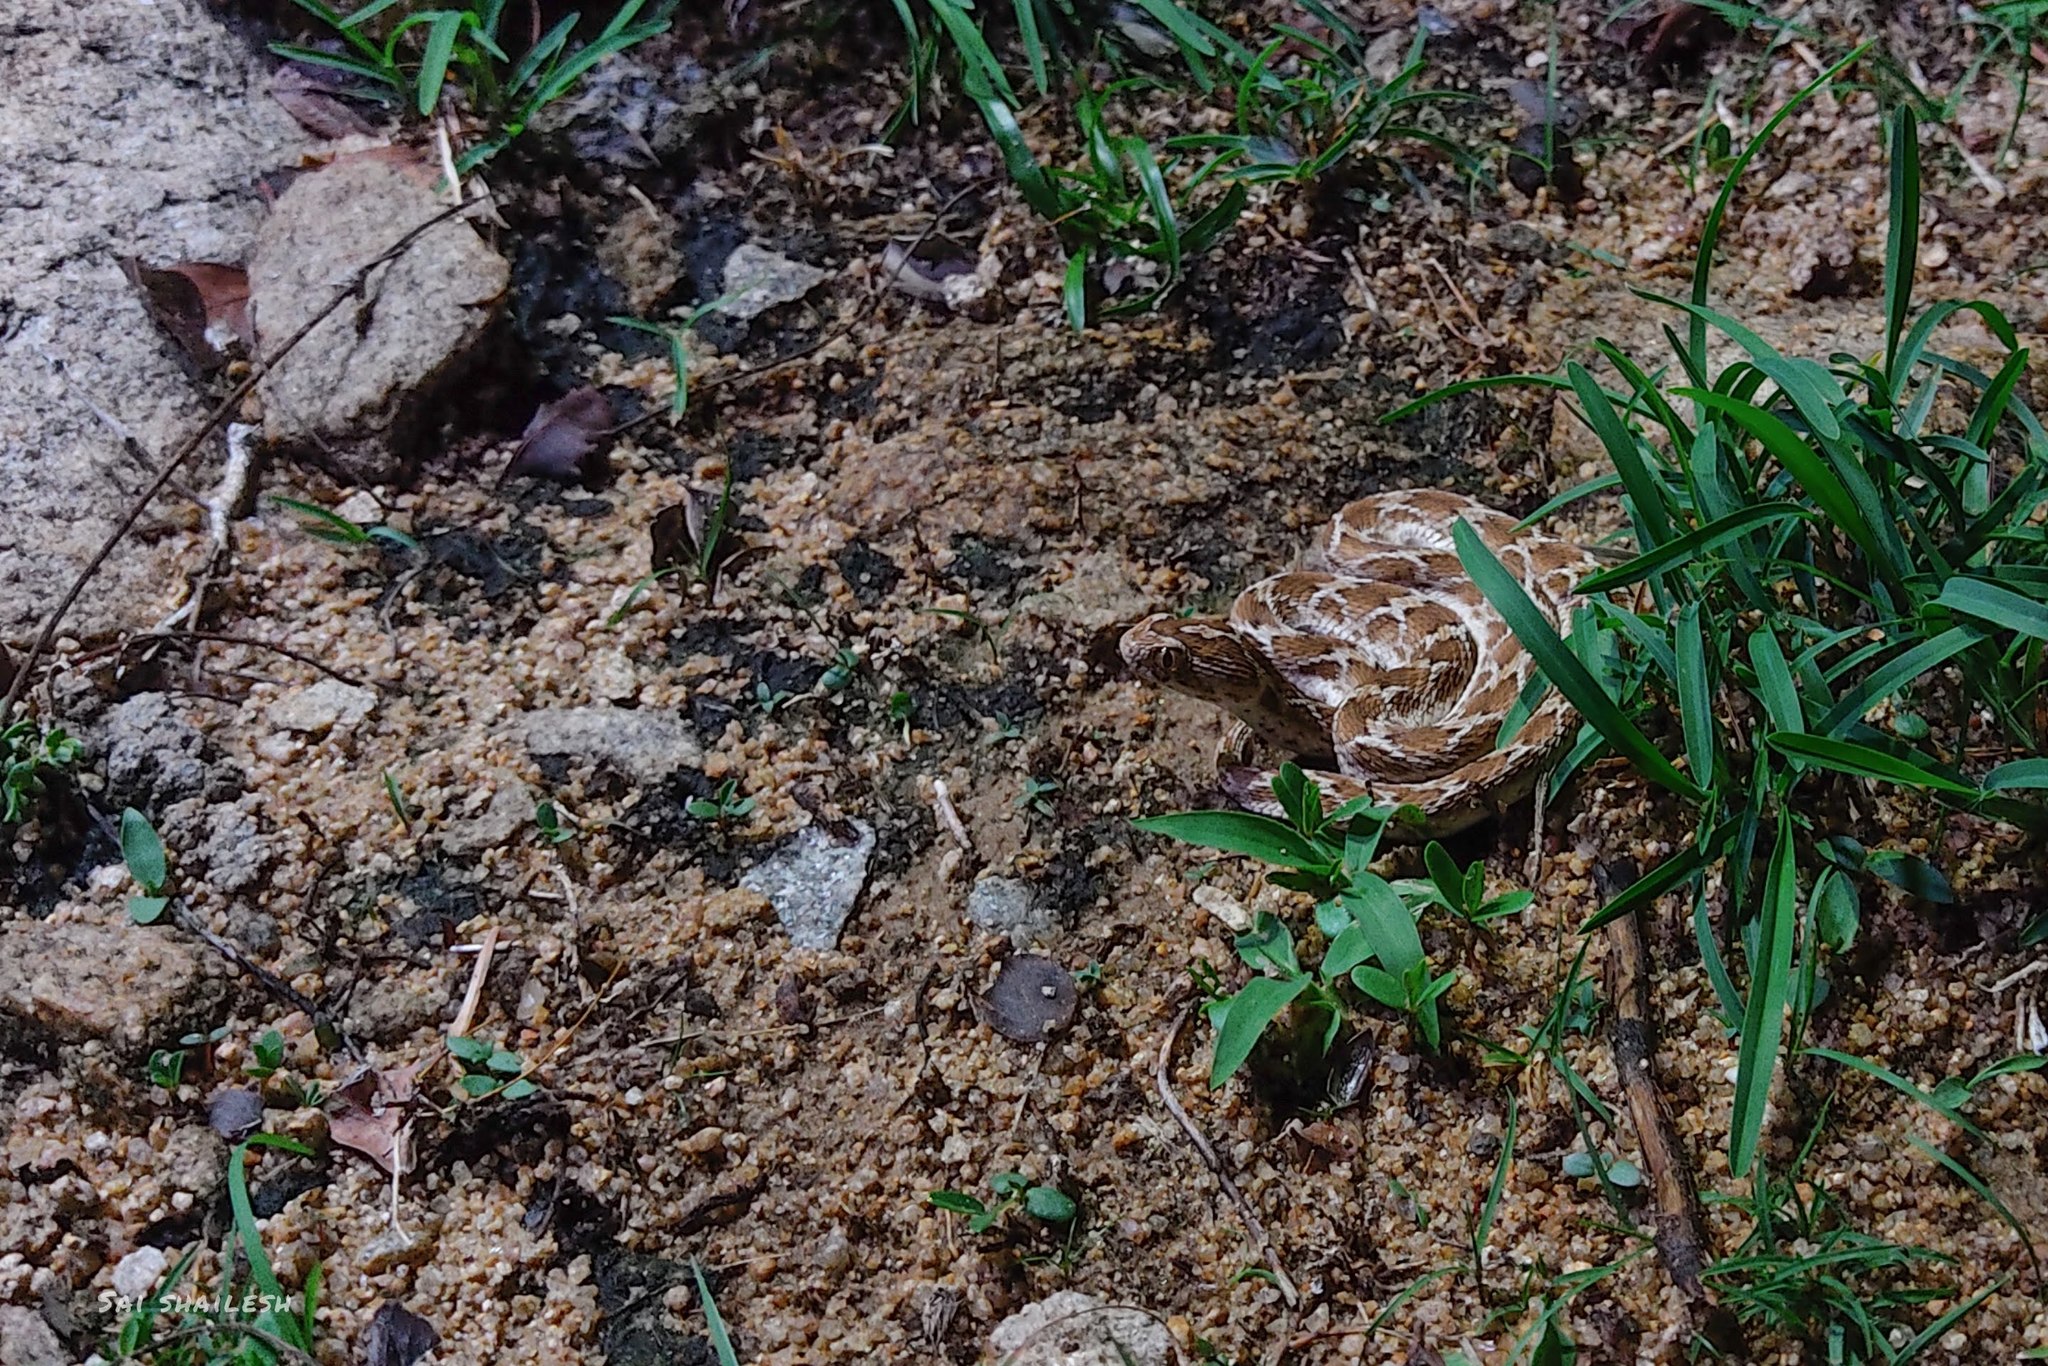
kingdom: Animalia
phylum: Chordata
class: Squamata
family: Viperidae
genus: Echis
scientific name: Echis carinatus
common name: Saw-scaled viper
